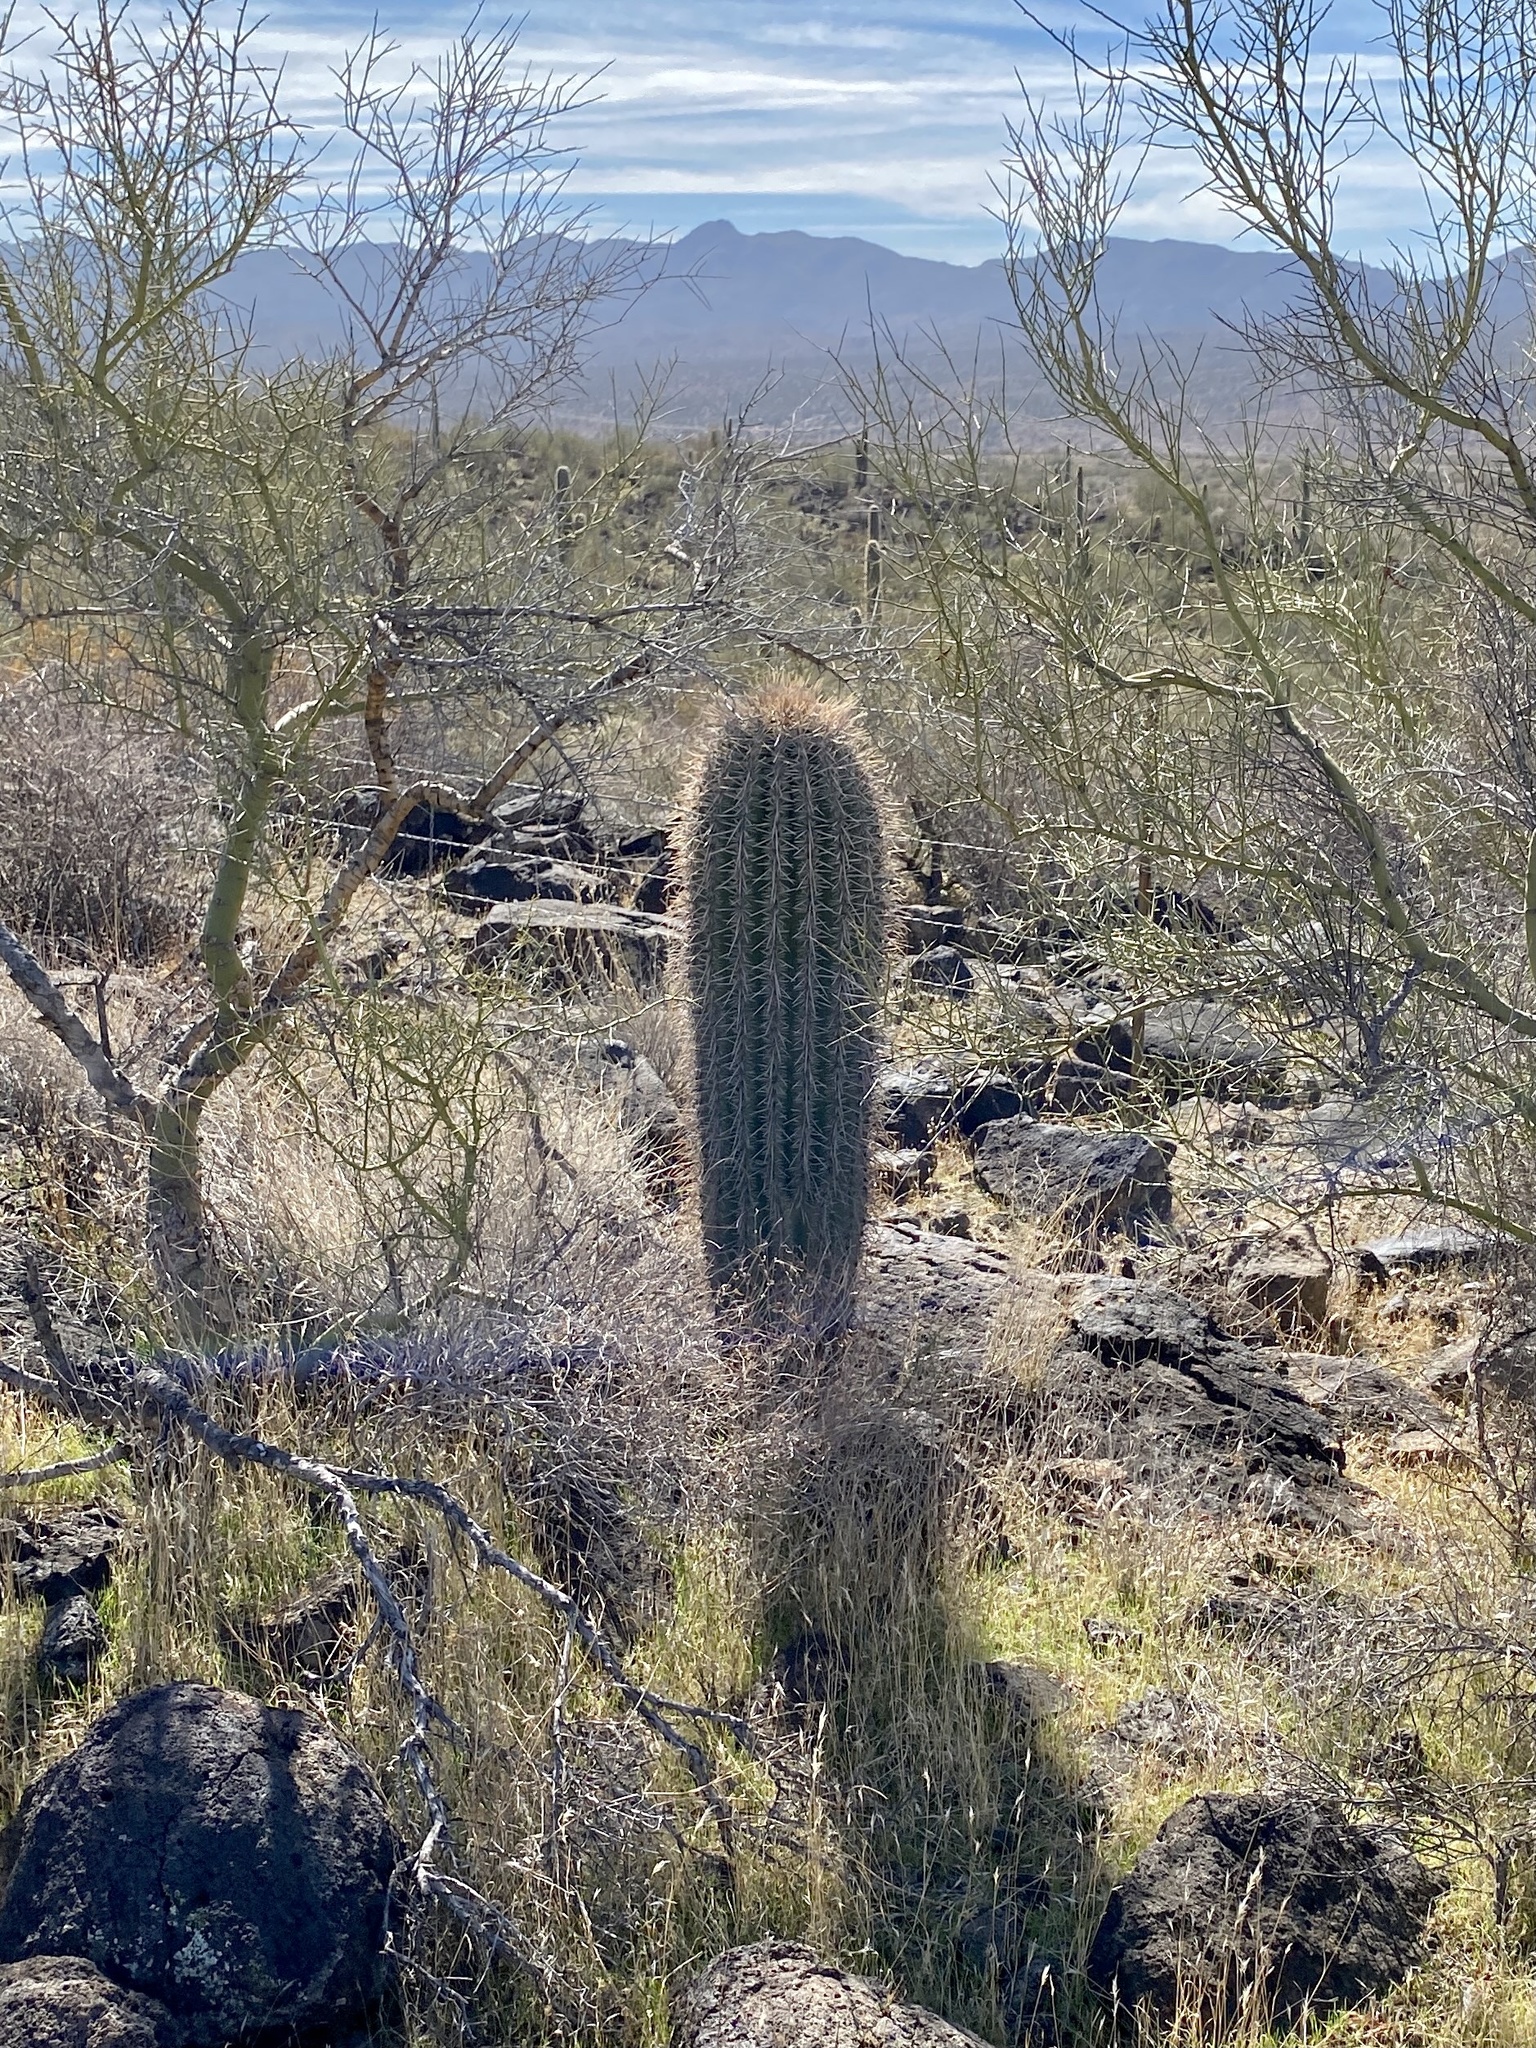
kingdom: Plantae
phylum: Tracheophyta
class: Magnoliopsida
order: Caryophyllales
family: Cactaceae
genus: Carnegiea
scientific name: Carnegiea gigantea
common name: Saguaro
